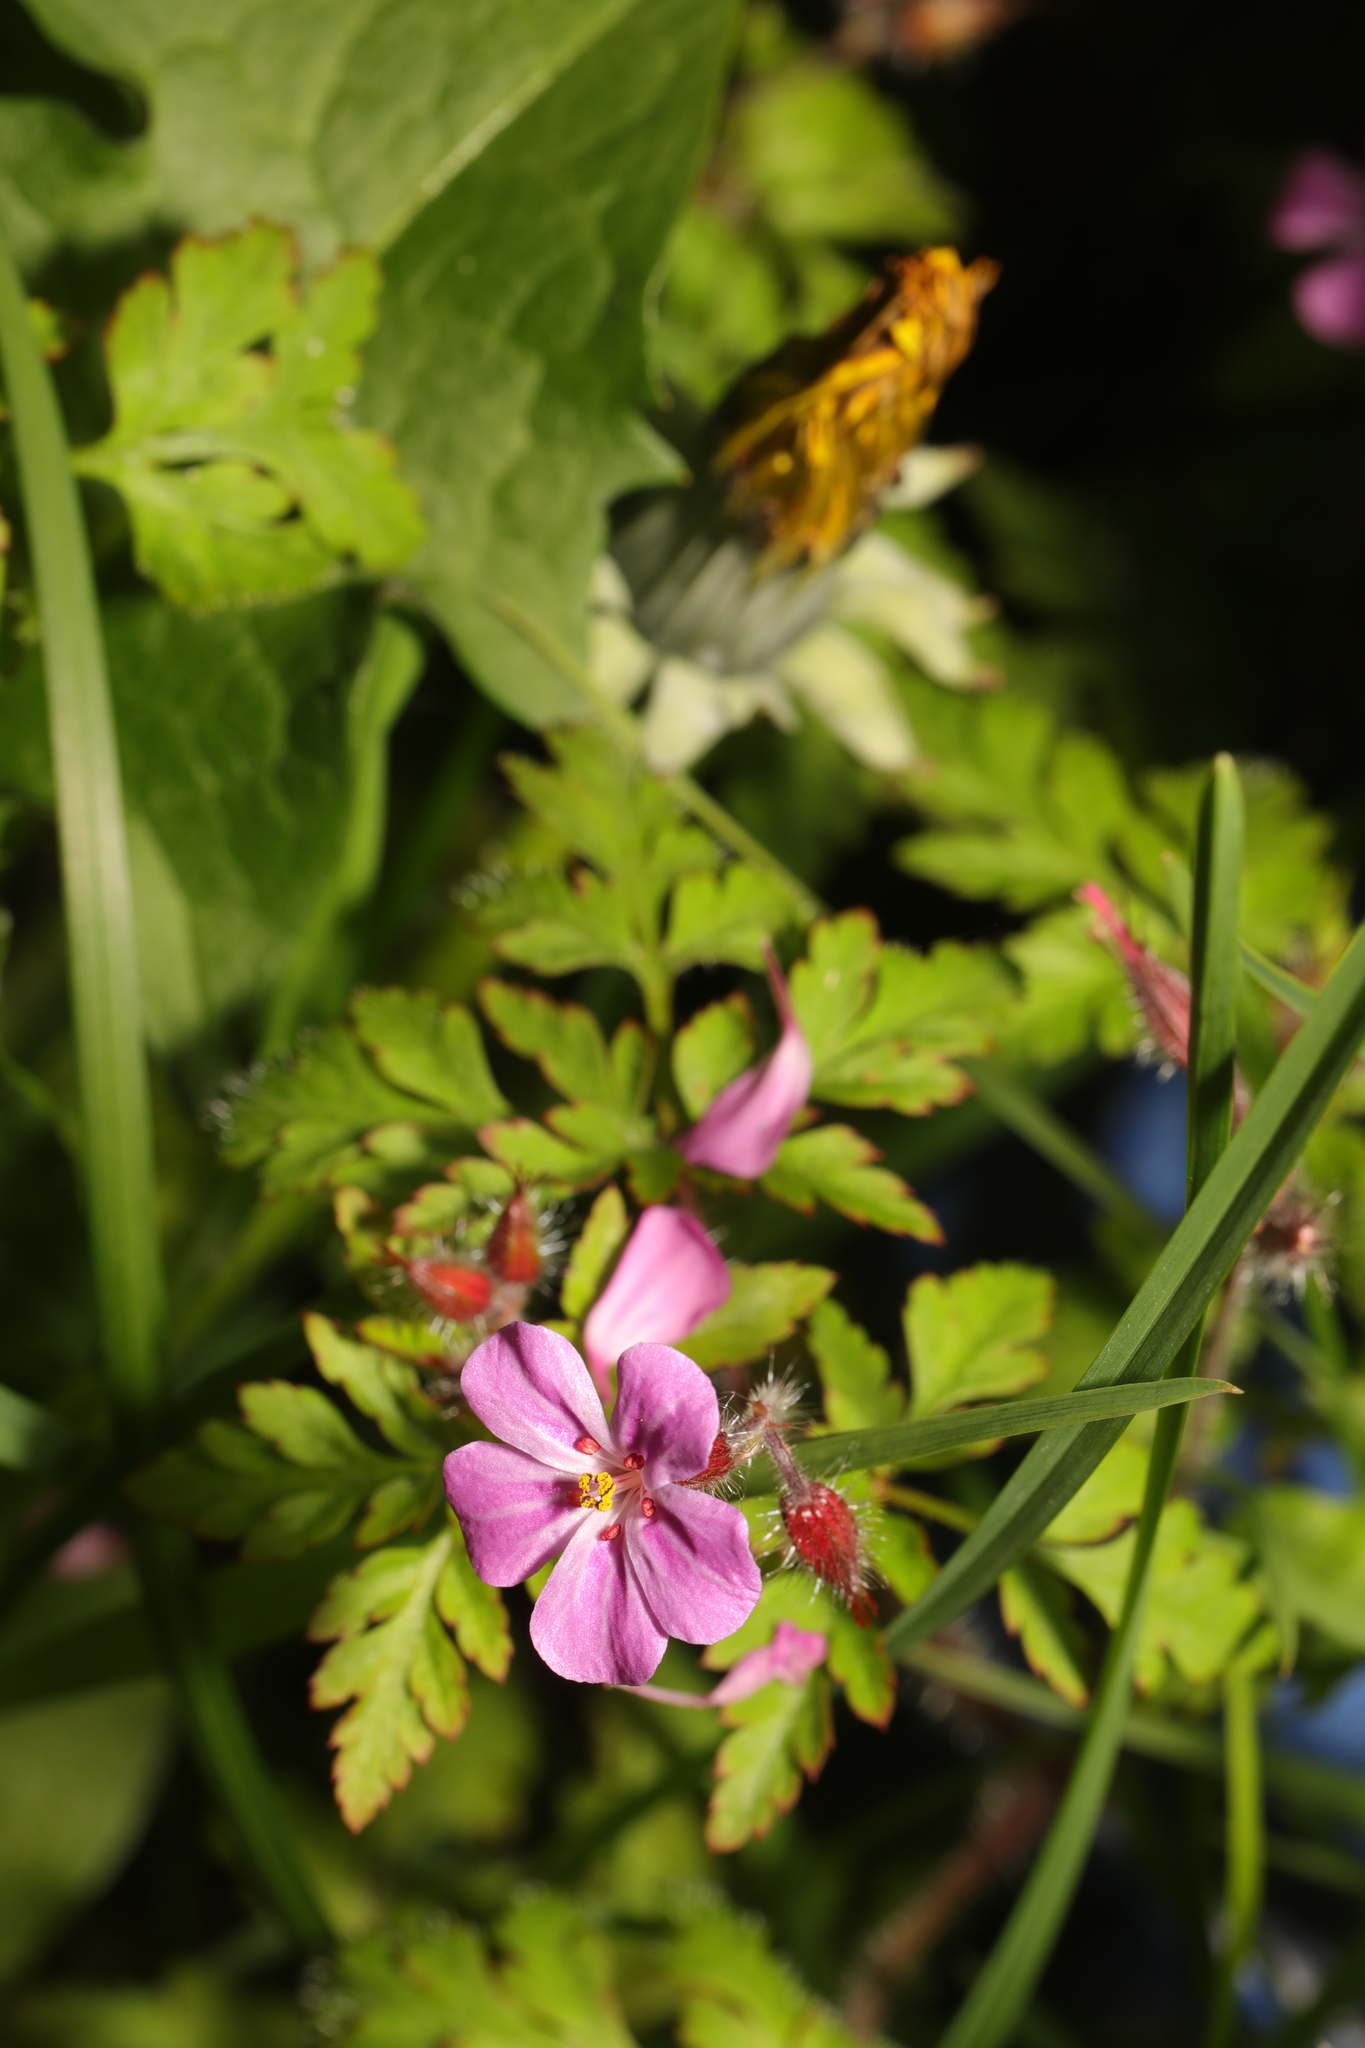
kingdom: Plantae
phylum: Tracheophyta
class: Magnoliopsida
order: Geraniales
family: Geraniaceae
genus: Geranium
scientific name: Geranium robertianum
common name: Herb-robert
